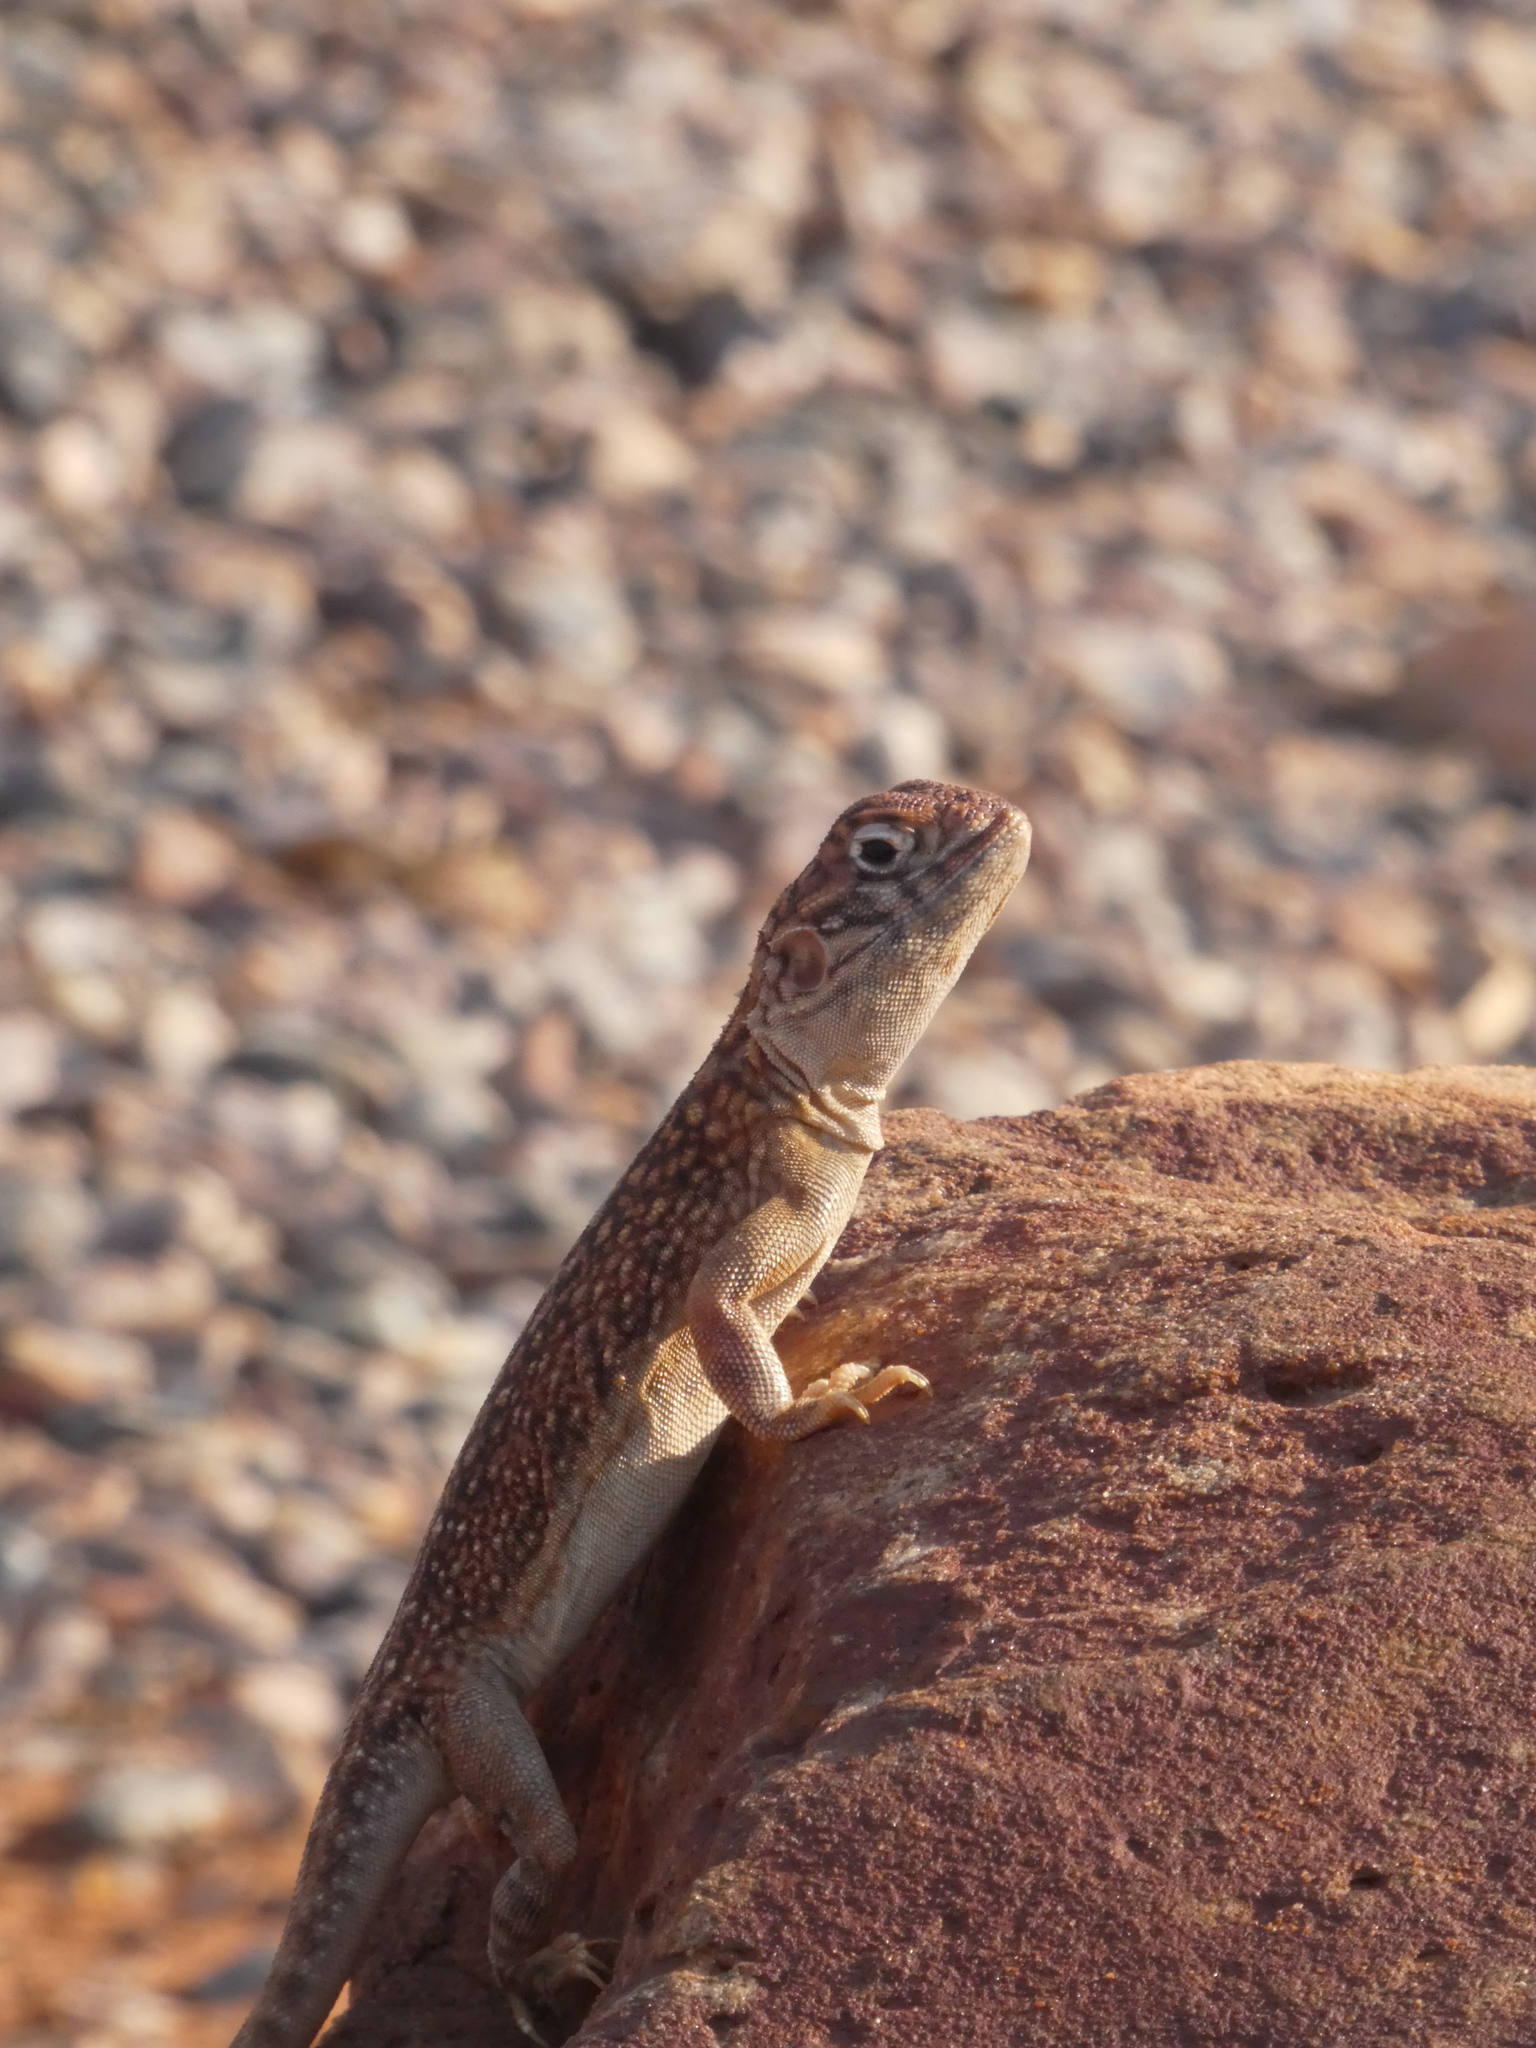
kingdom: Animalia
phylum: Chordata
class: Squamata
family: Agamidae
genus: Ctenophorus
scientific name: Ctenophorus nuchalis
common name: Central netted dragon
